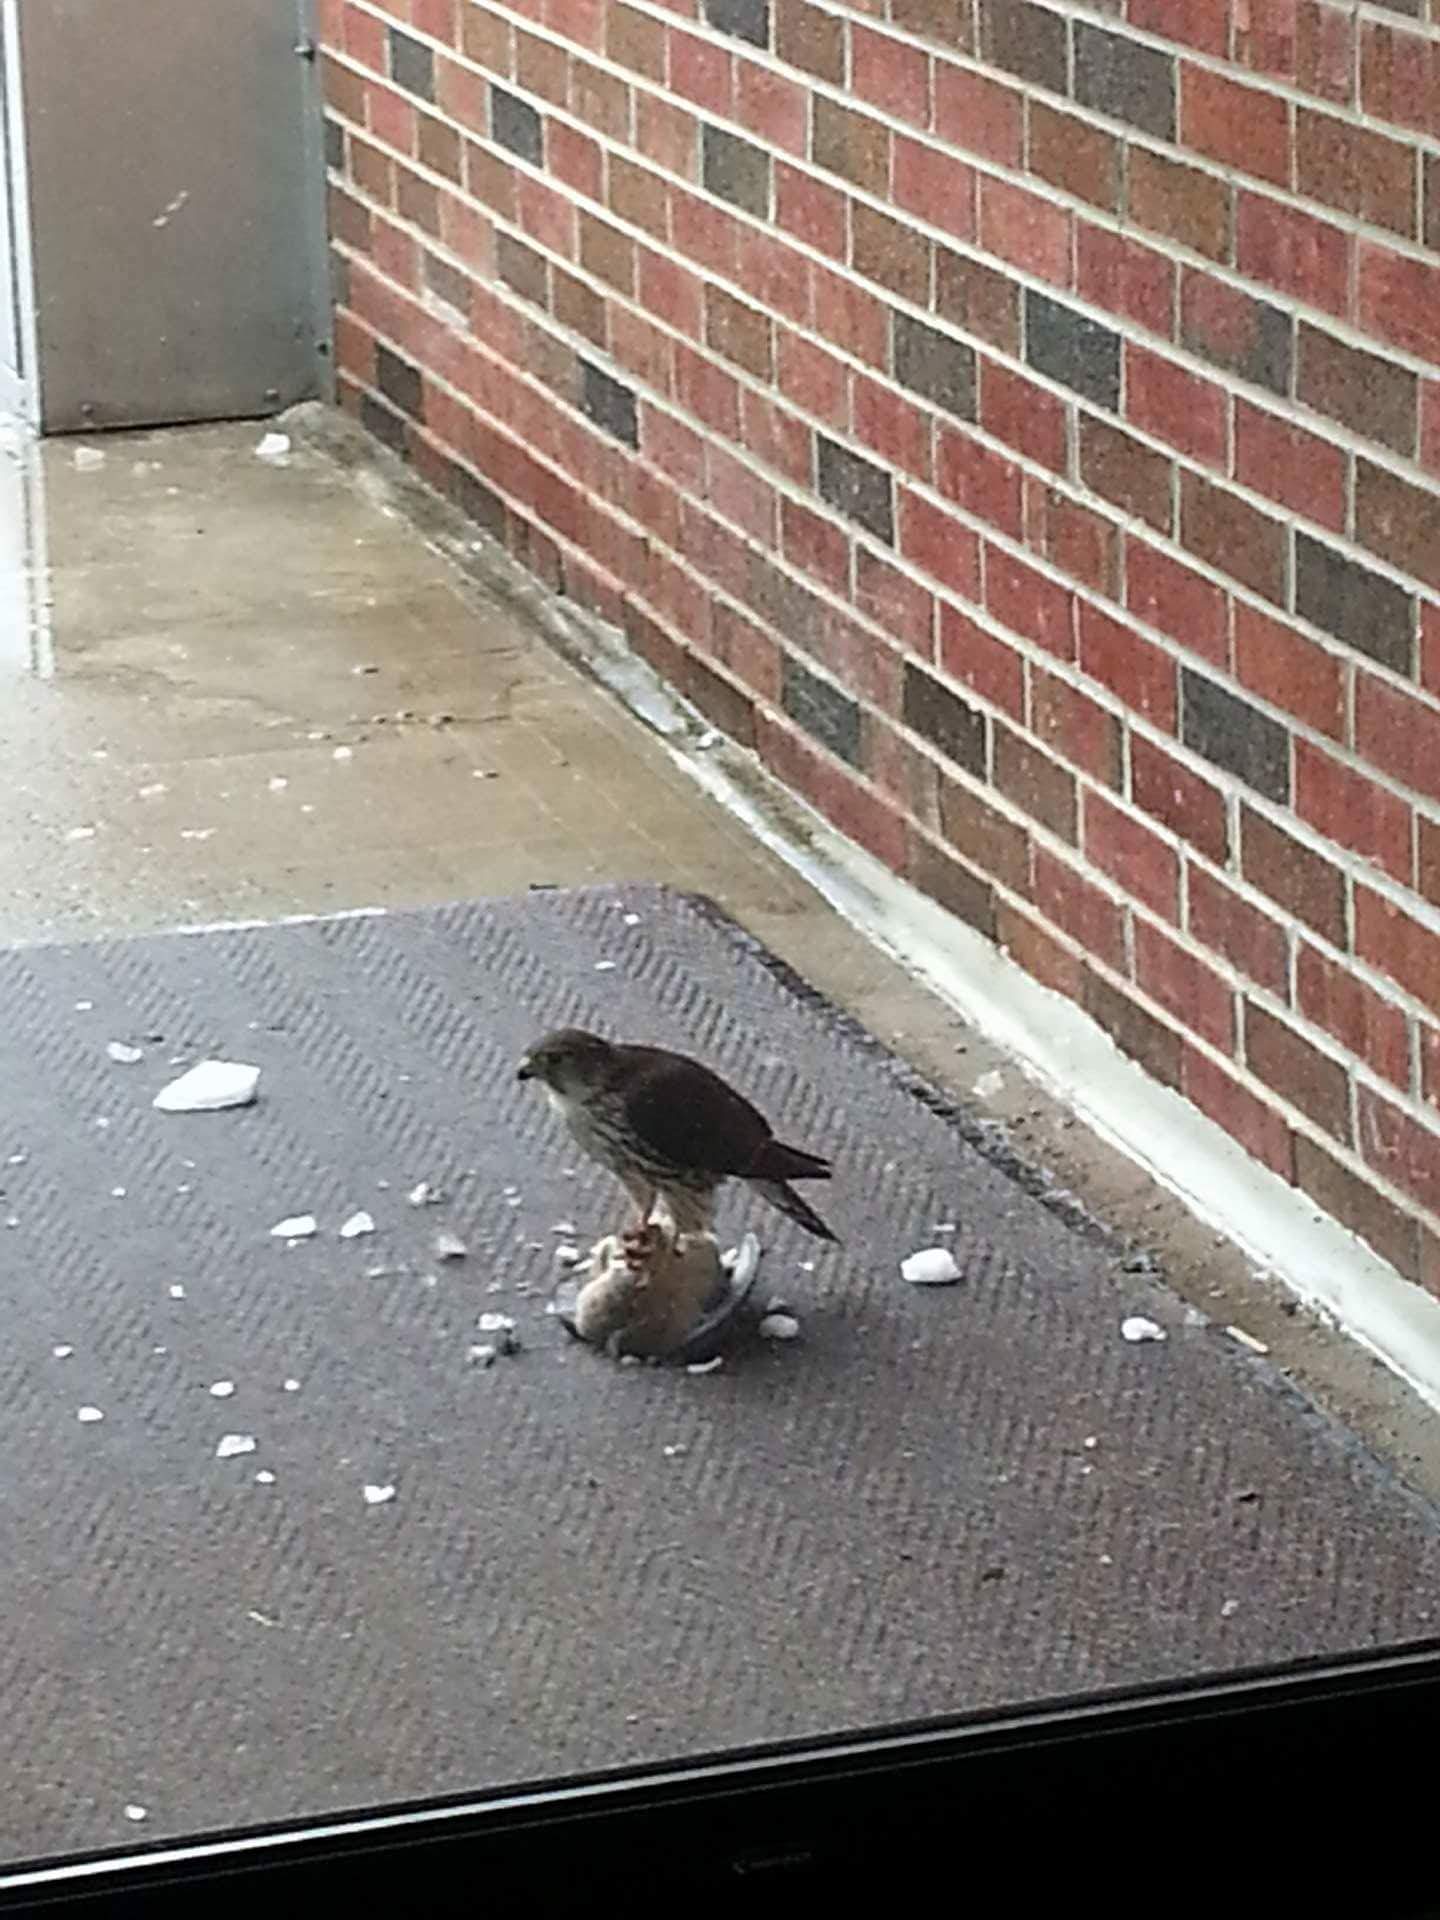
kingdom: Animalia
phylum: Chordata
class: Aves
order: Falconiformes
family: Falconidae
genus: Falco
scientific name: Falco columbarius
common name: Merlin
